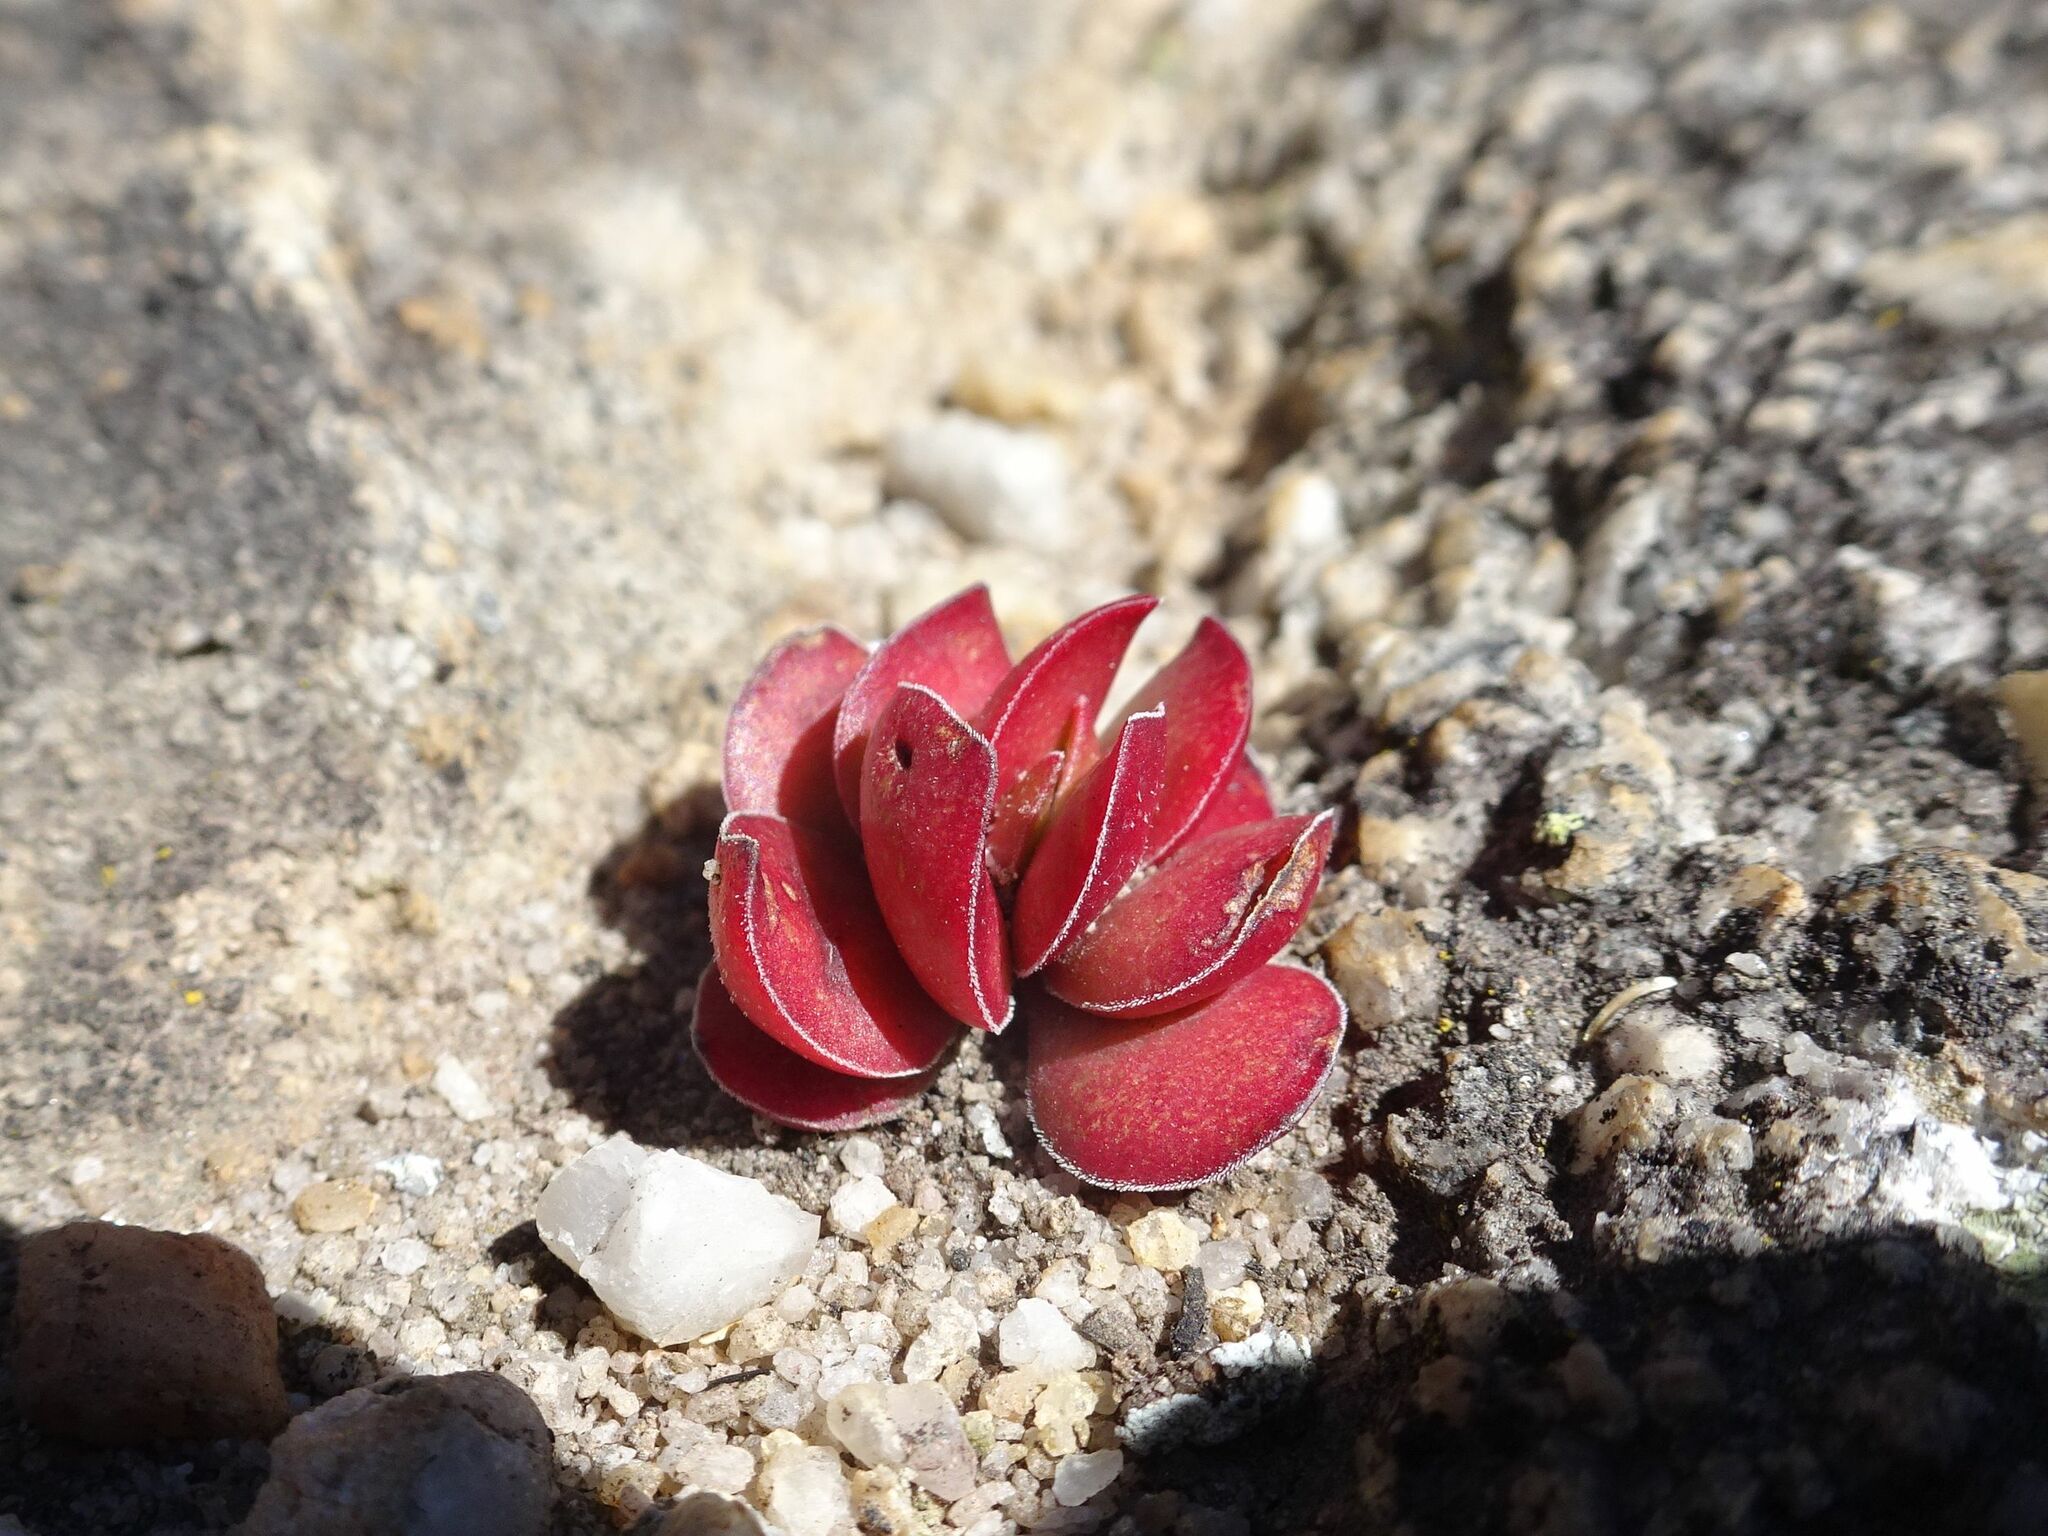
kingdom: Plantae
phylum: Tracheophyta
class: Magnoliopsida
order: Saxifragales
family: Crassulaceae
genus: Crassula
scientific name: Crassula nudicaulis
